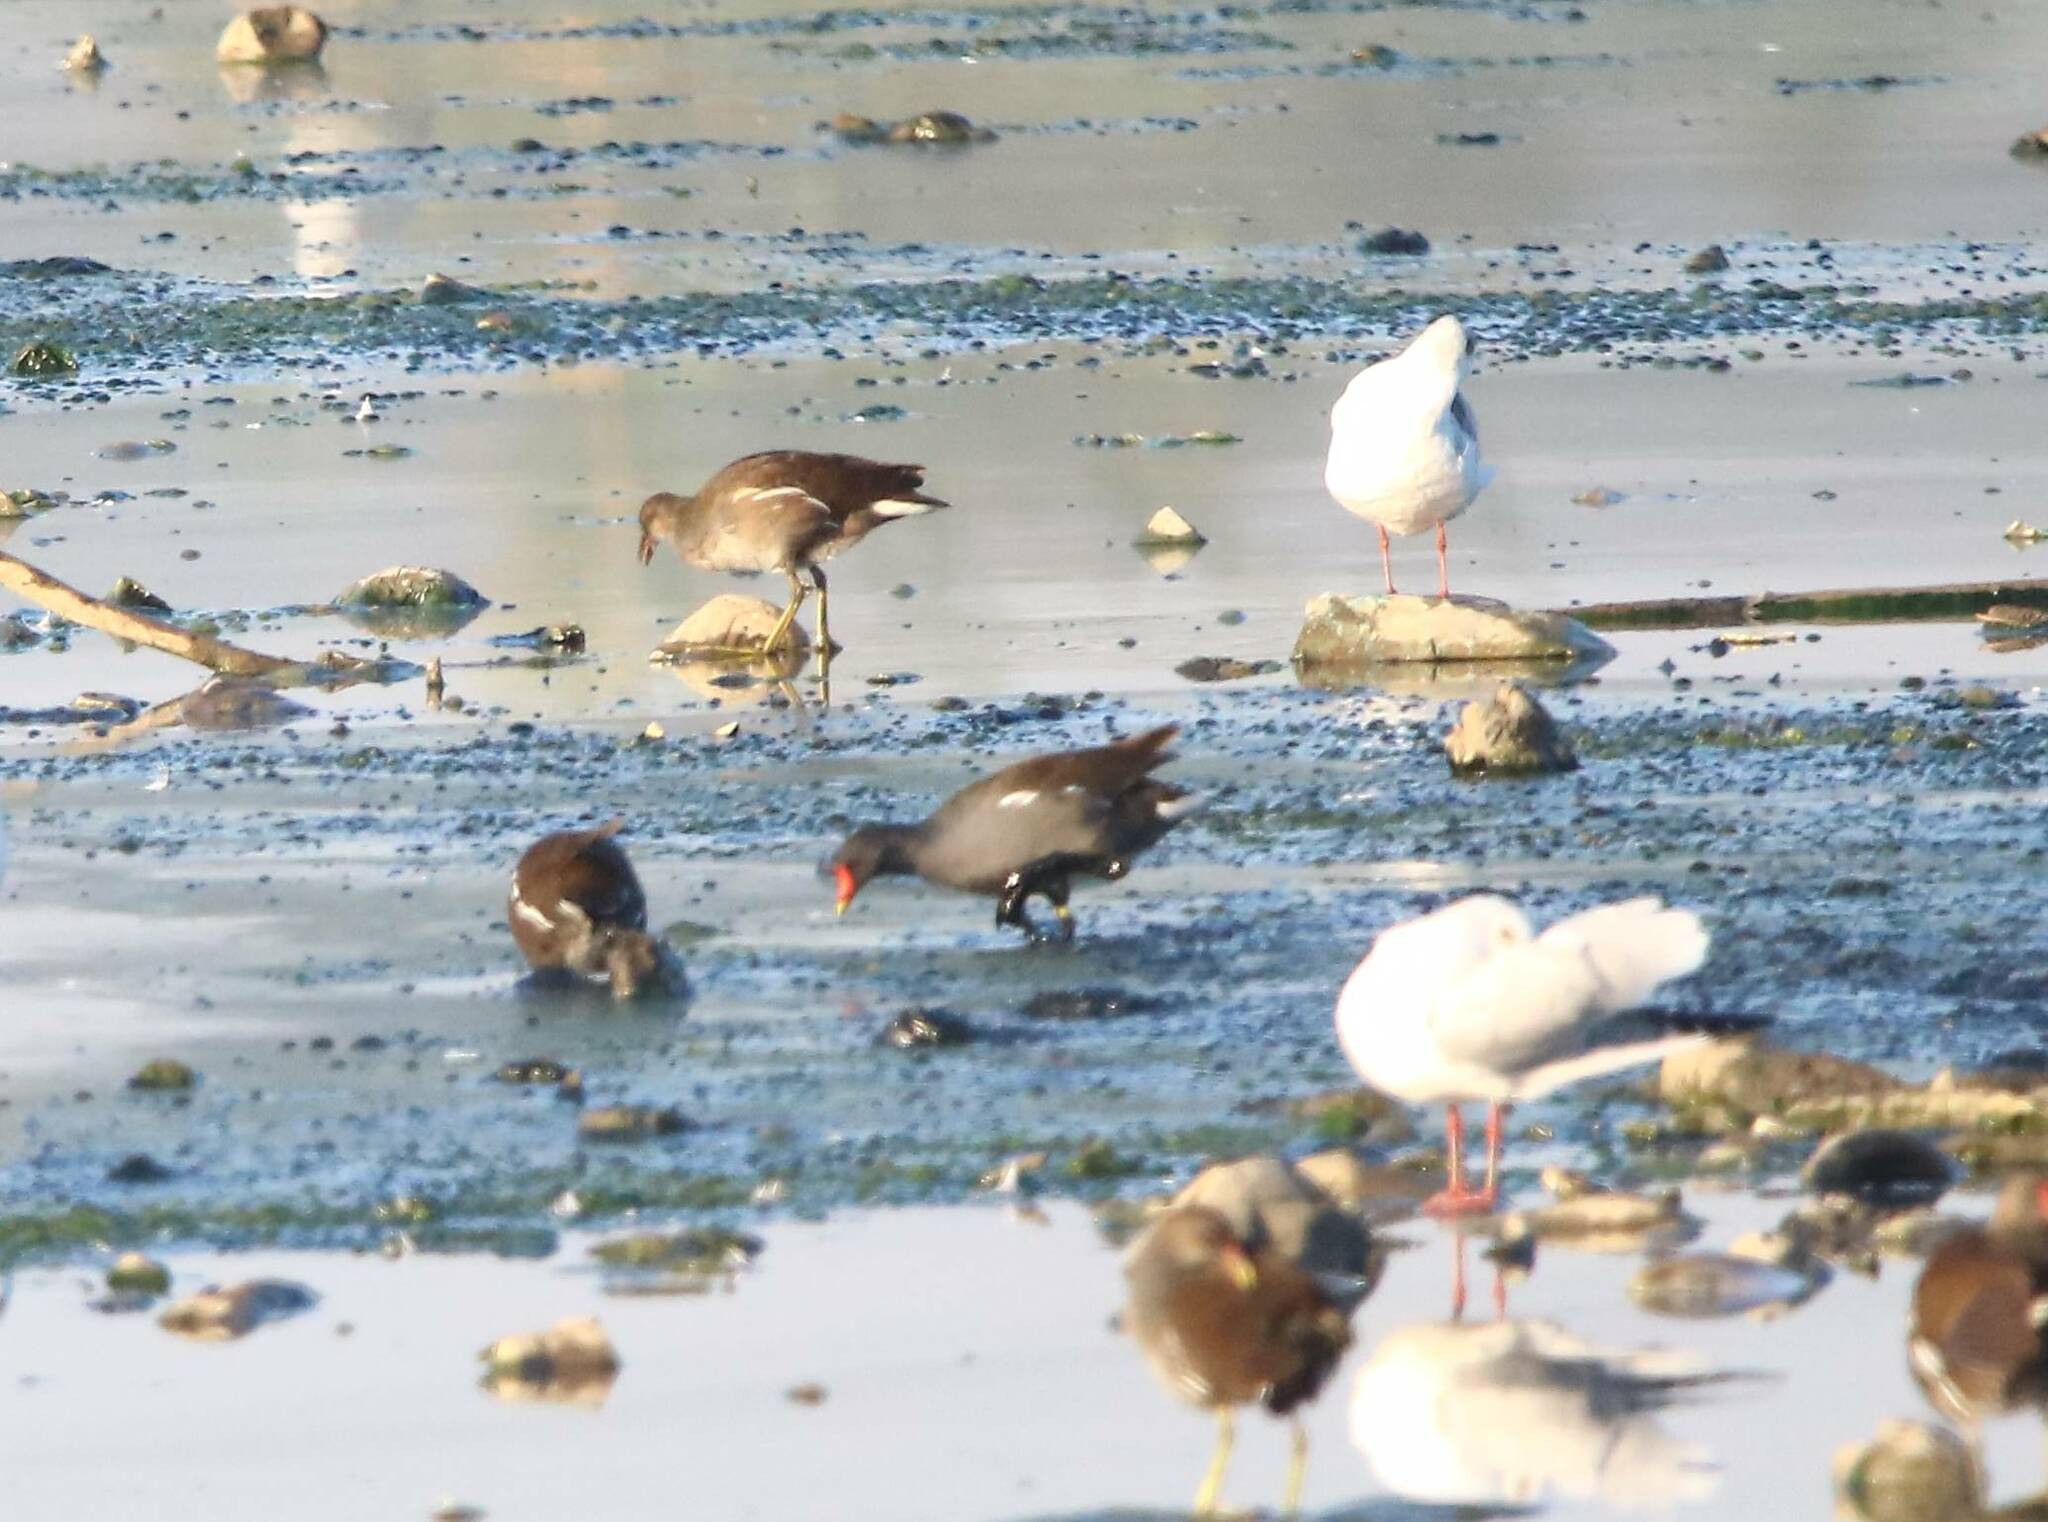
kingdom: Animalia
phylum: Chordata
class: Aves
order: Gruiformes
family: Rallidae
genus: Gallinula
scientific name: Gallinula chloropus
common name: Common moorhen
